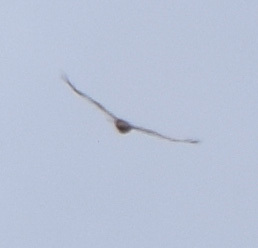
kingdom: Animalia
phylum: Chordata
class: Aves
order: Accipitriformes
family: Accipitridae
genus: Buteo
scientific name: Buteo buteo
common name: Common buzzard
